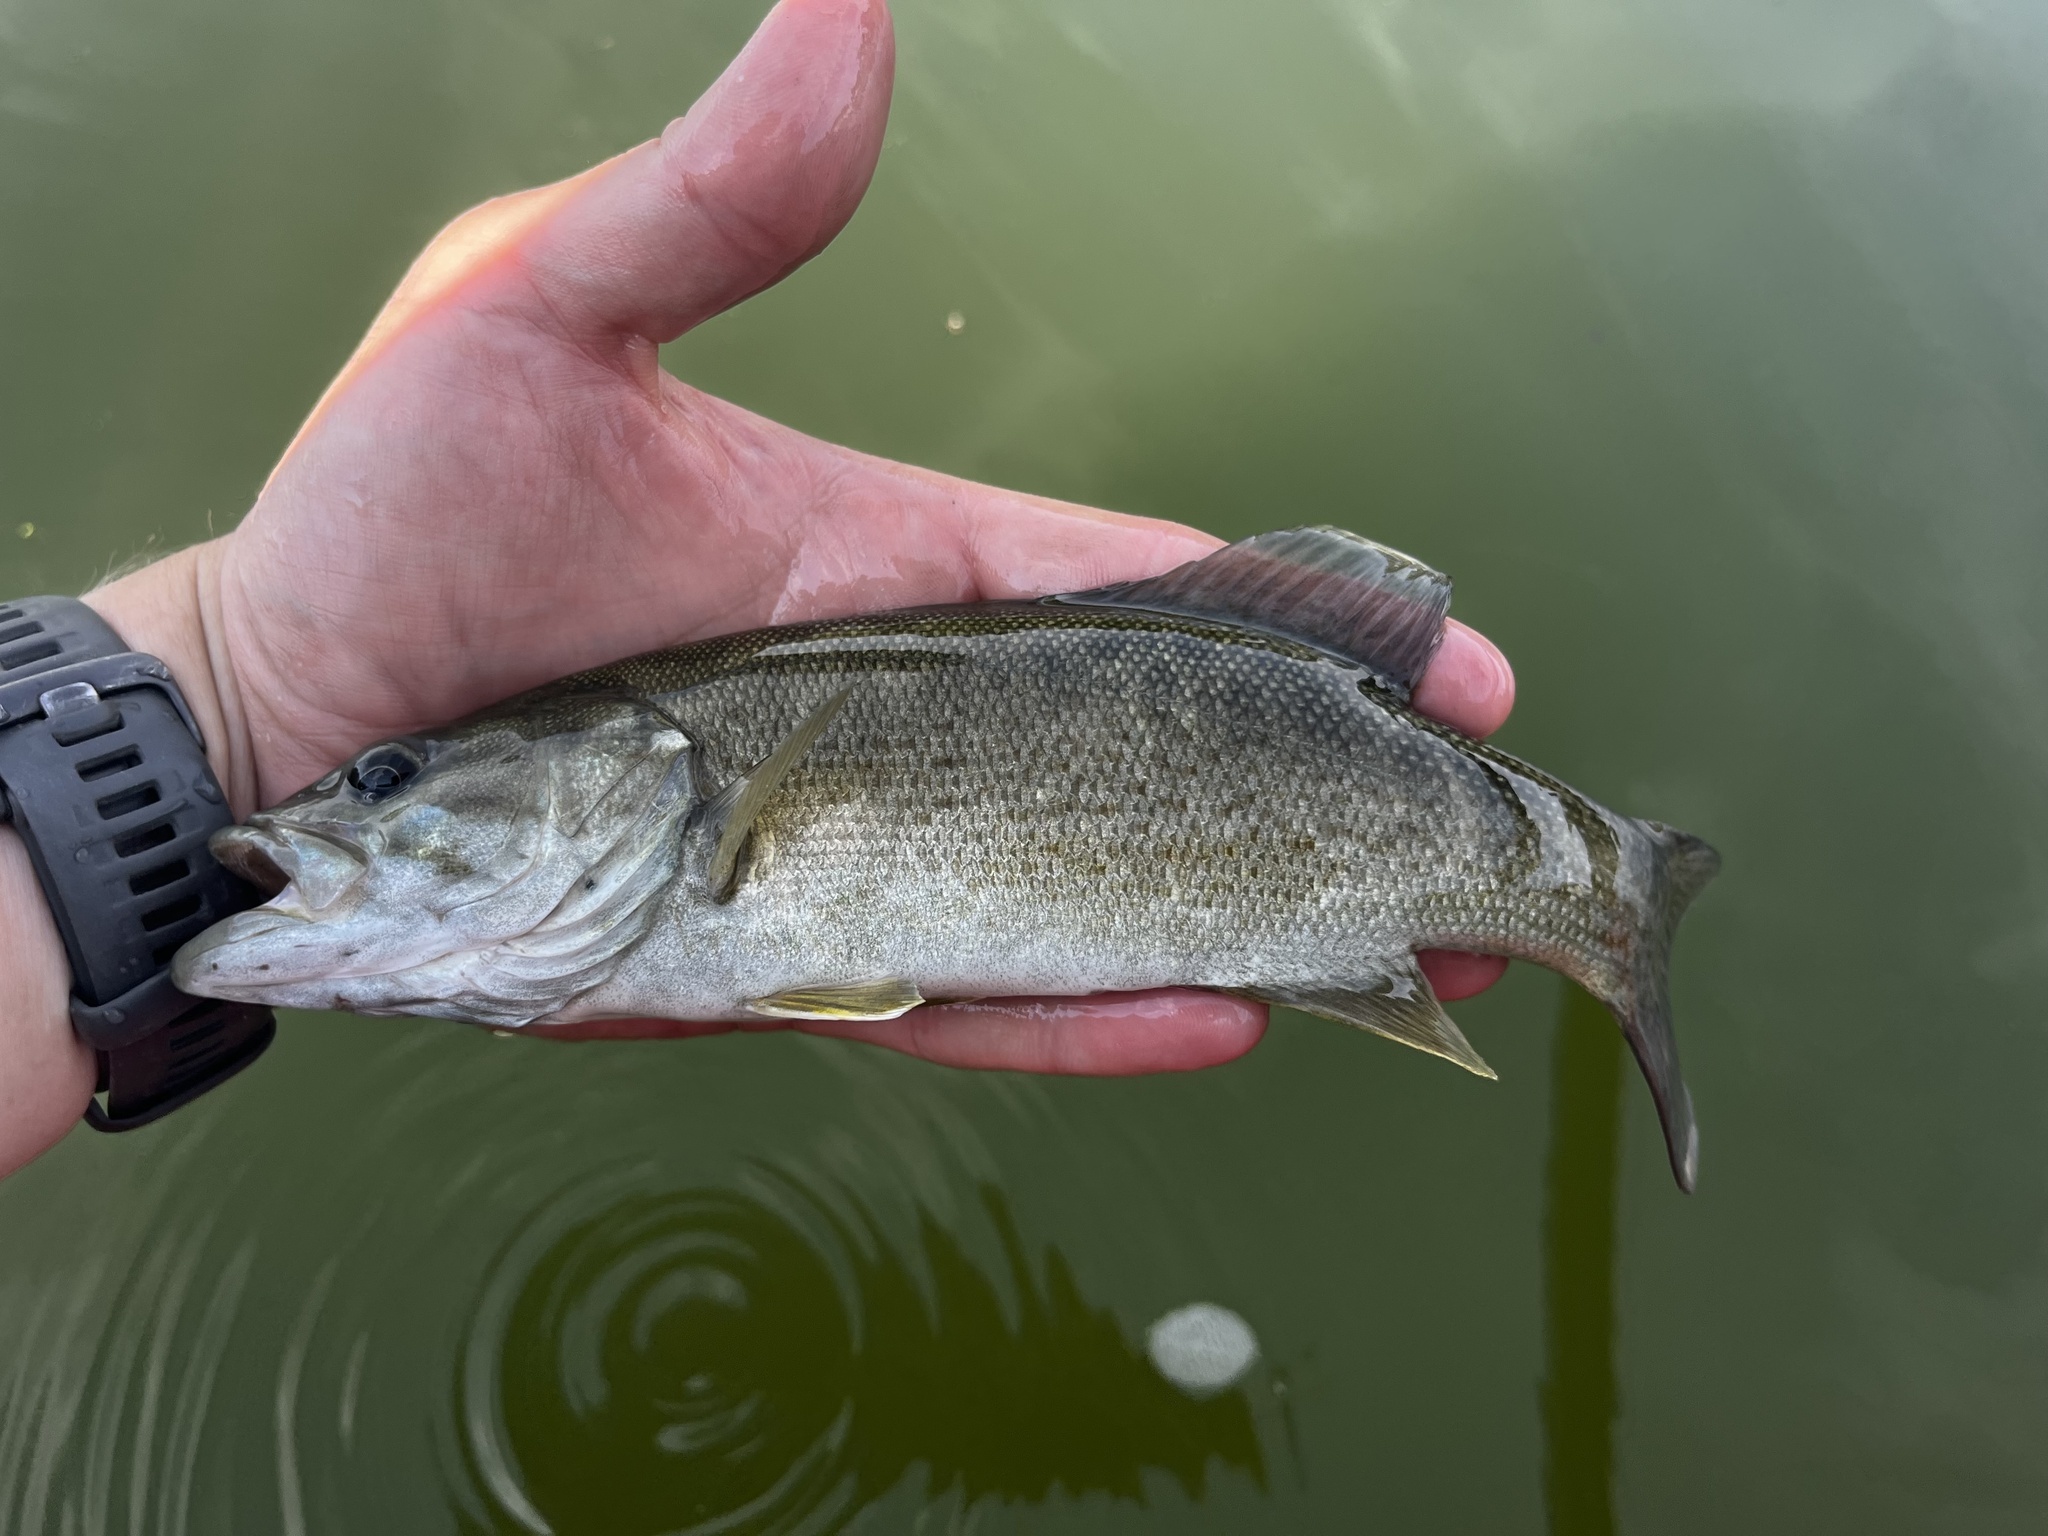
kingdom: Animalia
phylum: Chordata
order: Perciformes
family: Centrarchidae
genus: Micropterus
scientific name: Micropterus dolomieu
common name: Smallmouth bass
